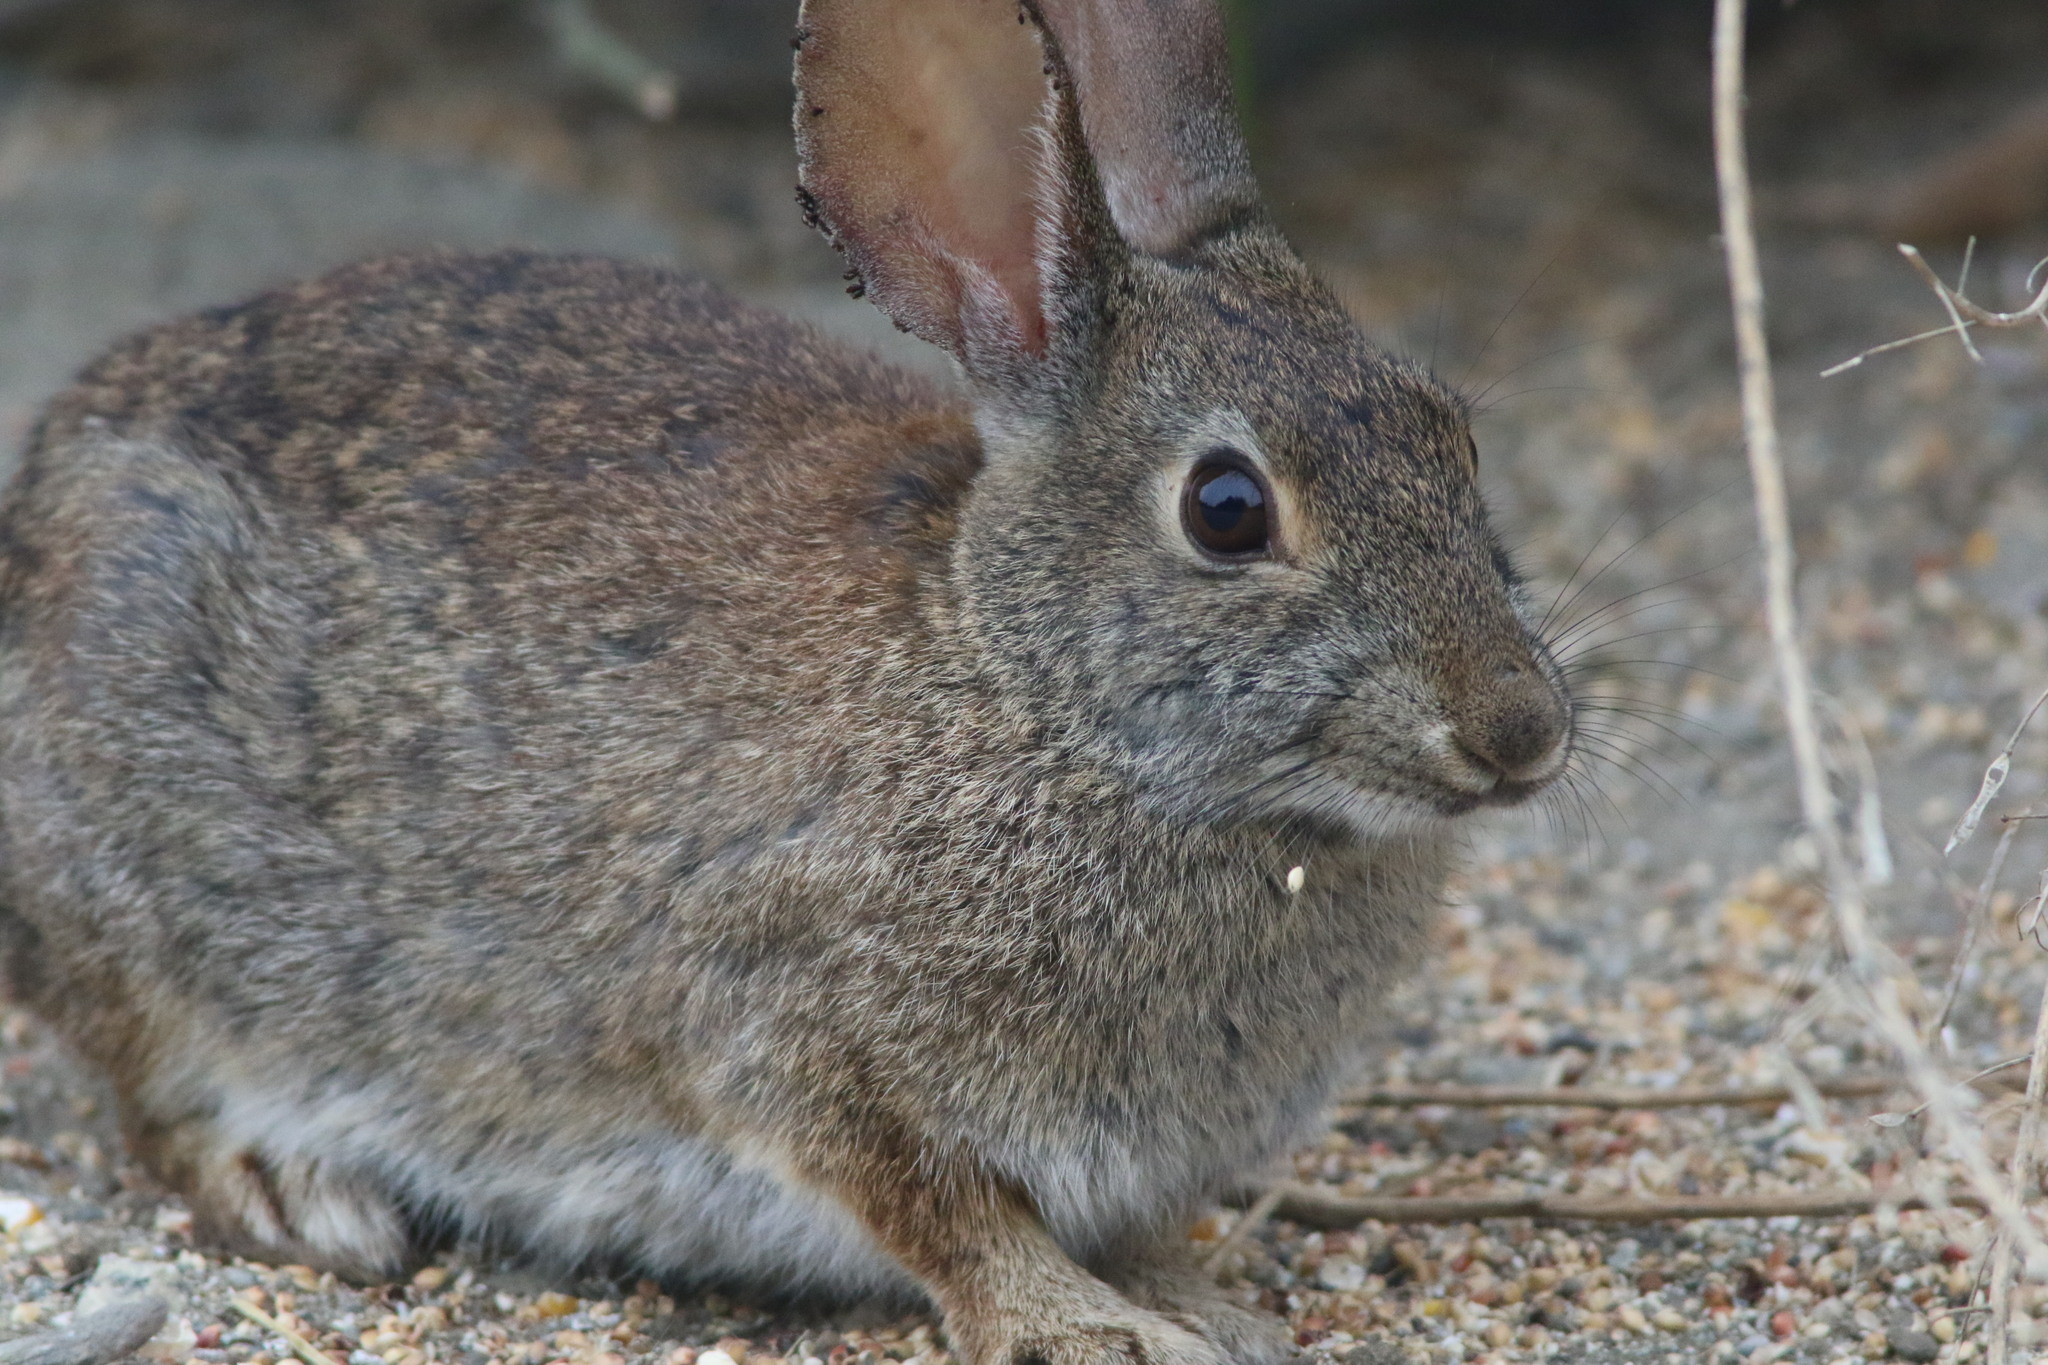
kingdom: Animalia
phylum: Chordata
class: Mammalia
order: Lagomorpha
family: Leporidae
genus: Sylvilagus
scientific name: Sylvilagus bachmani
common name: Brush rabbit
